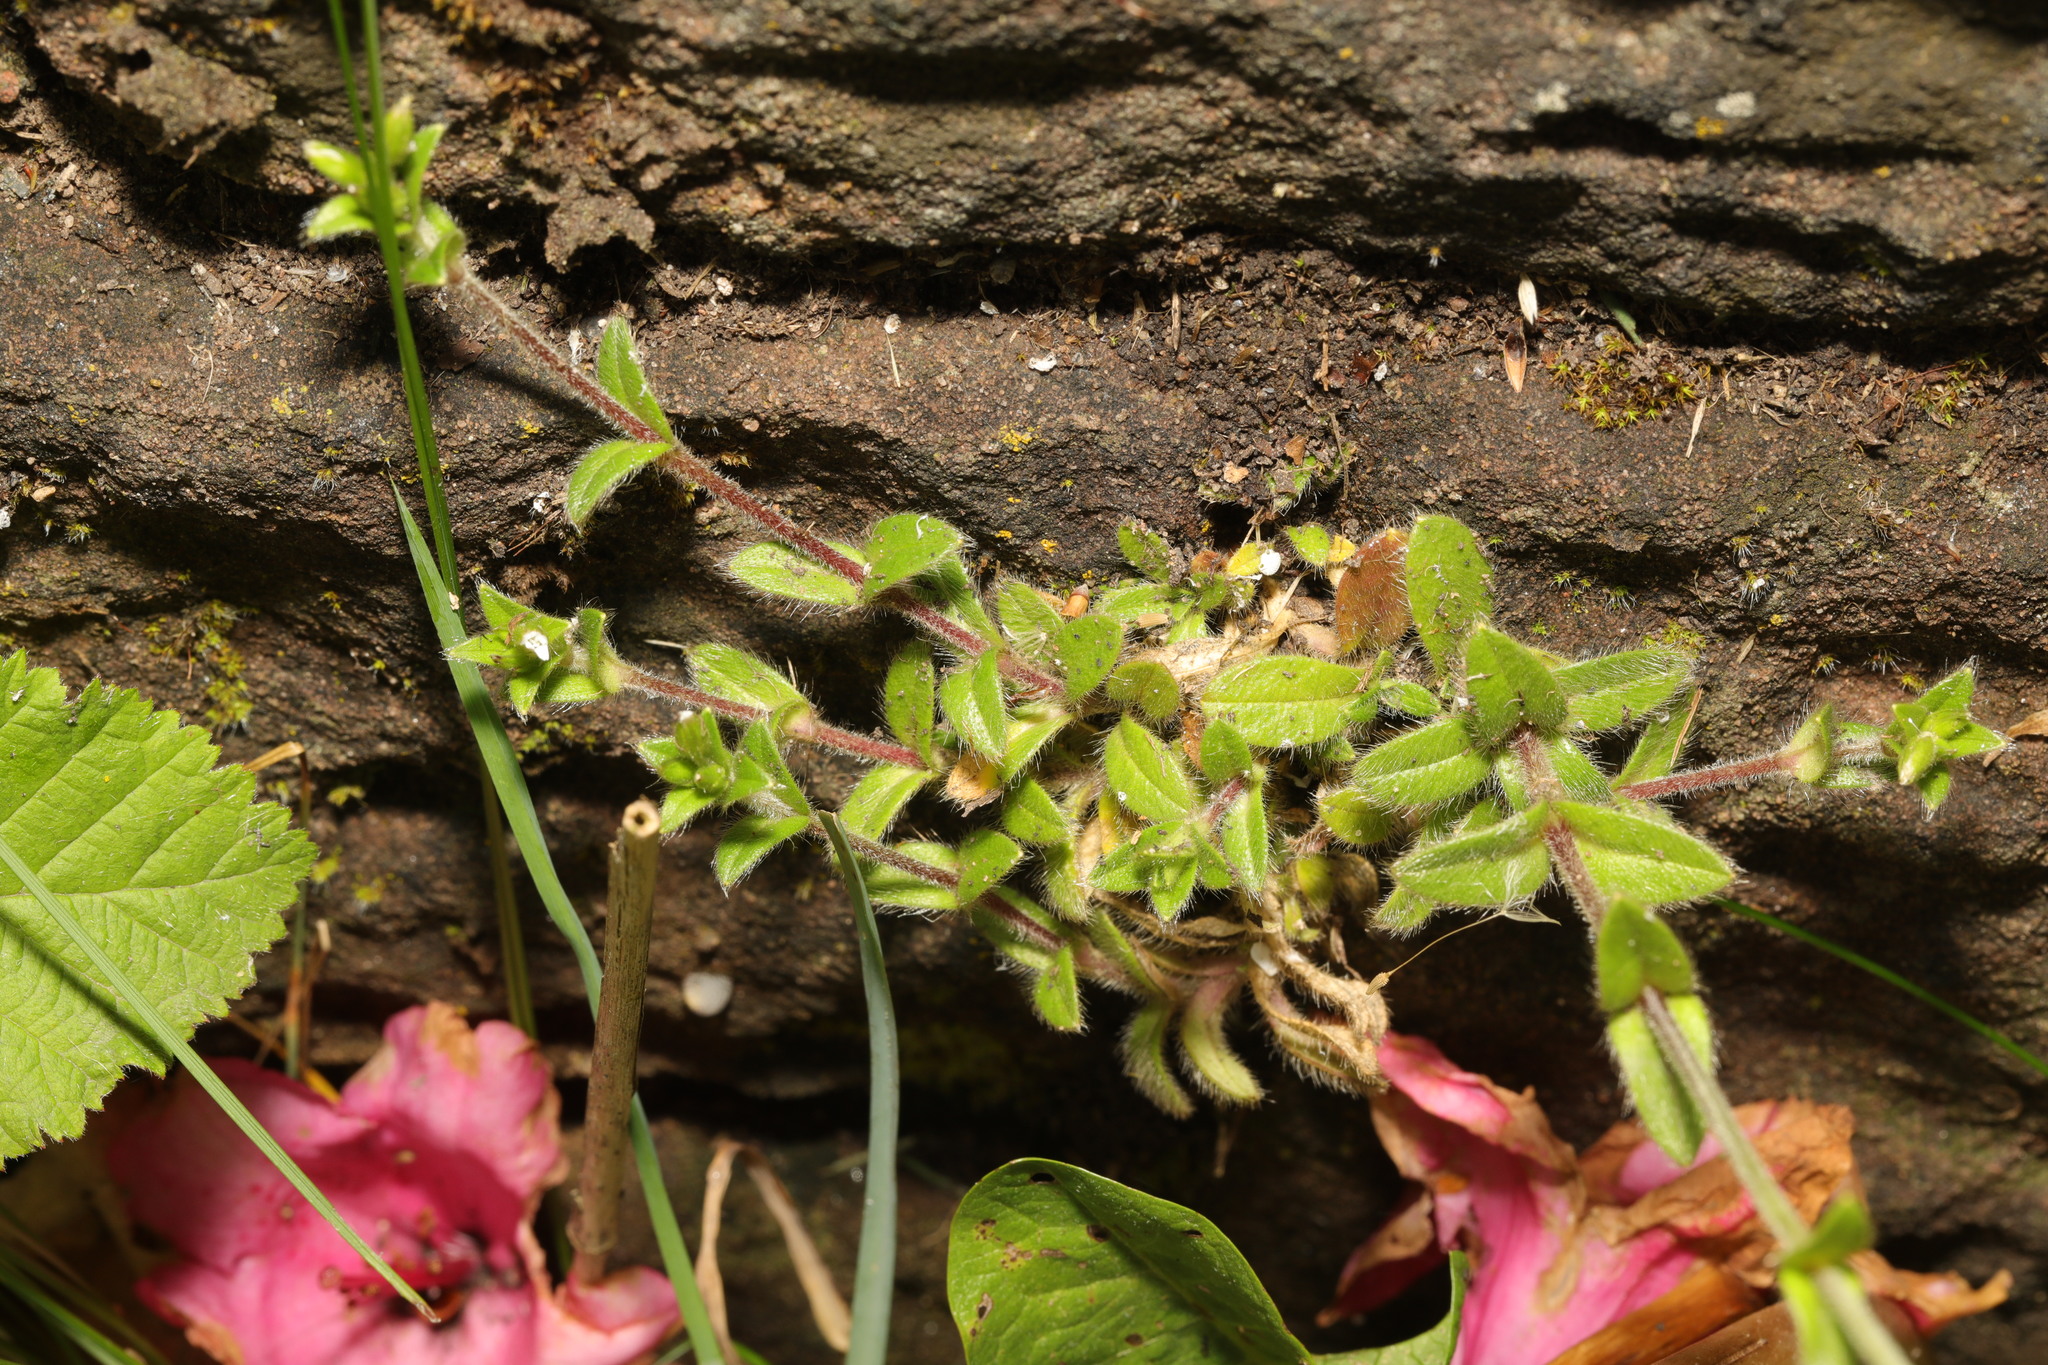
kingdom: Plantae
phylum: Tracheophyta
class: Magnoliopsida
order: Caryophyllales
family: Caryophyllaceae
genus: Cerastium
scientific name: Cerastium fontanum
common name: Common mouse-ear
